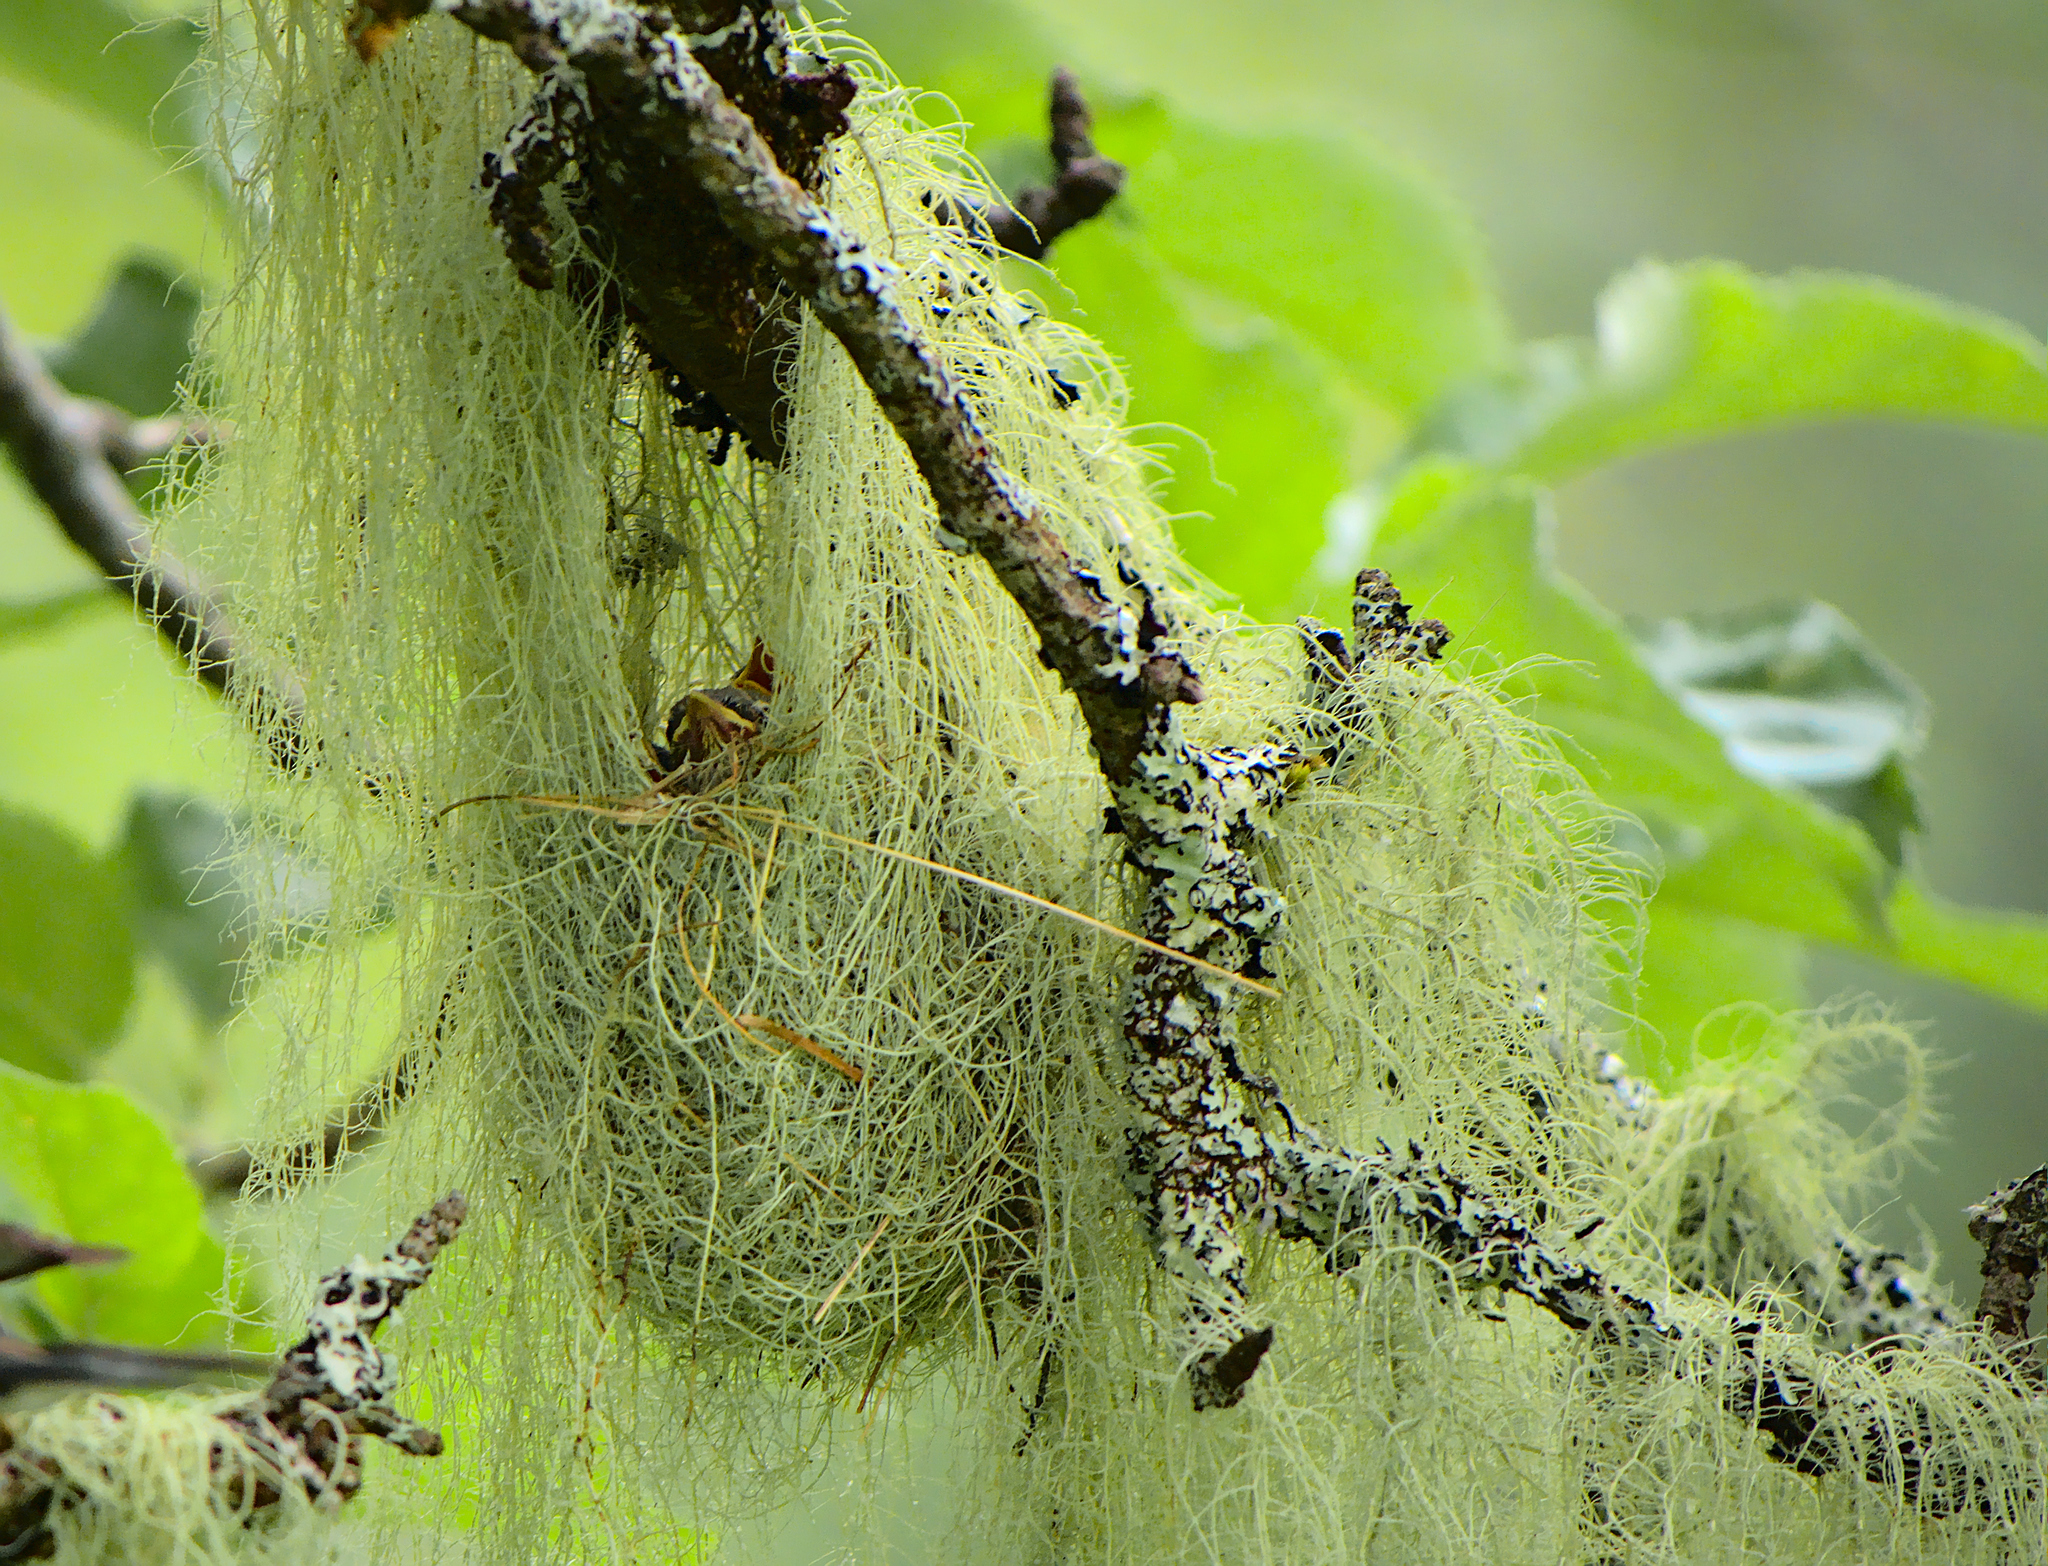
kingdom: Animalia
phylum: Chordata
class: Aves
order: Passeriformes
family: Parulidae
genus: Setophaga
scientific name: Setophaga americana
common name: Northern parula
